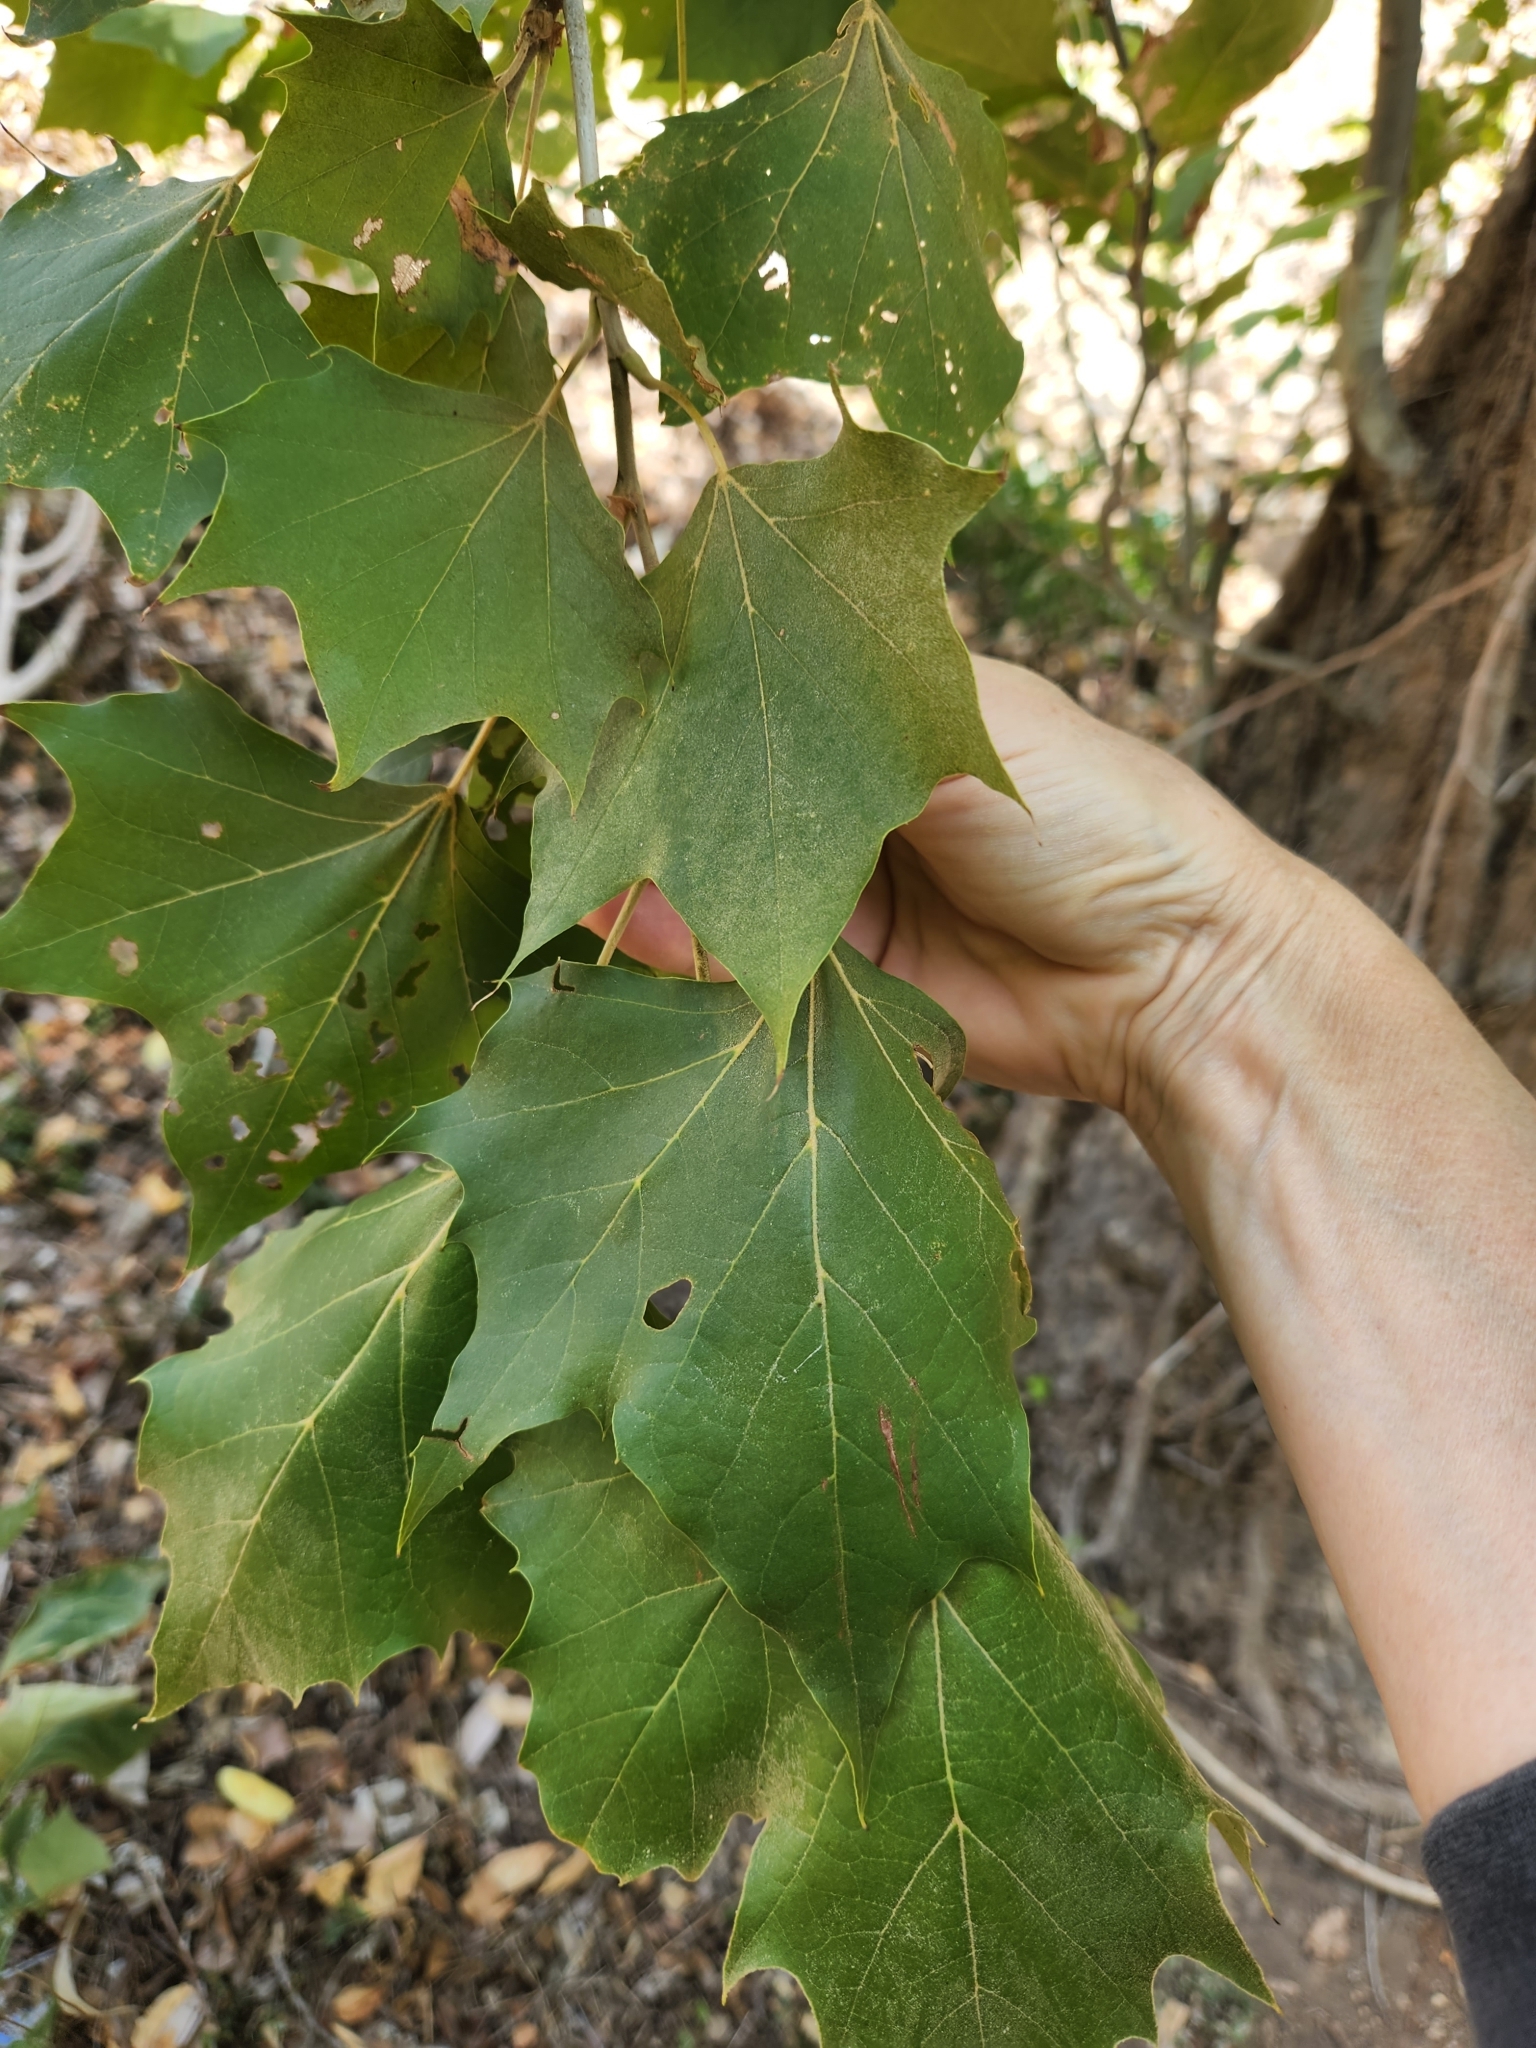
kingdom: Plantae
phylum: Tracheophyta
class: Magnoliopsida
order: Proteales
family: Platanaceae
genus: Platanus
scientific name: Platanus occidentalis
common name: American sycamore
